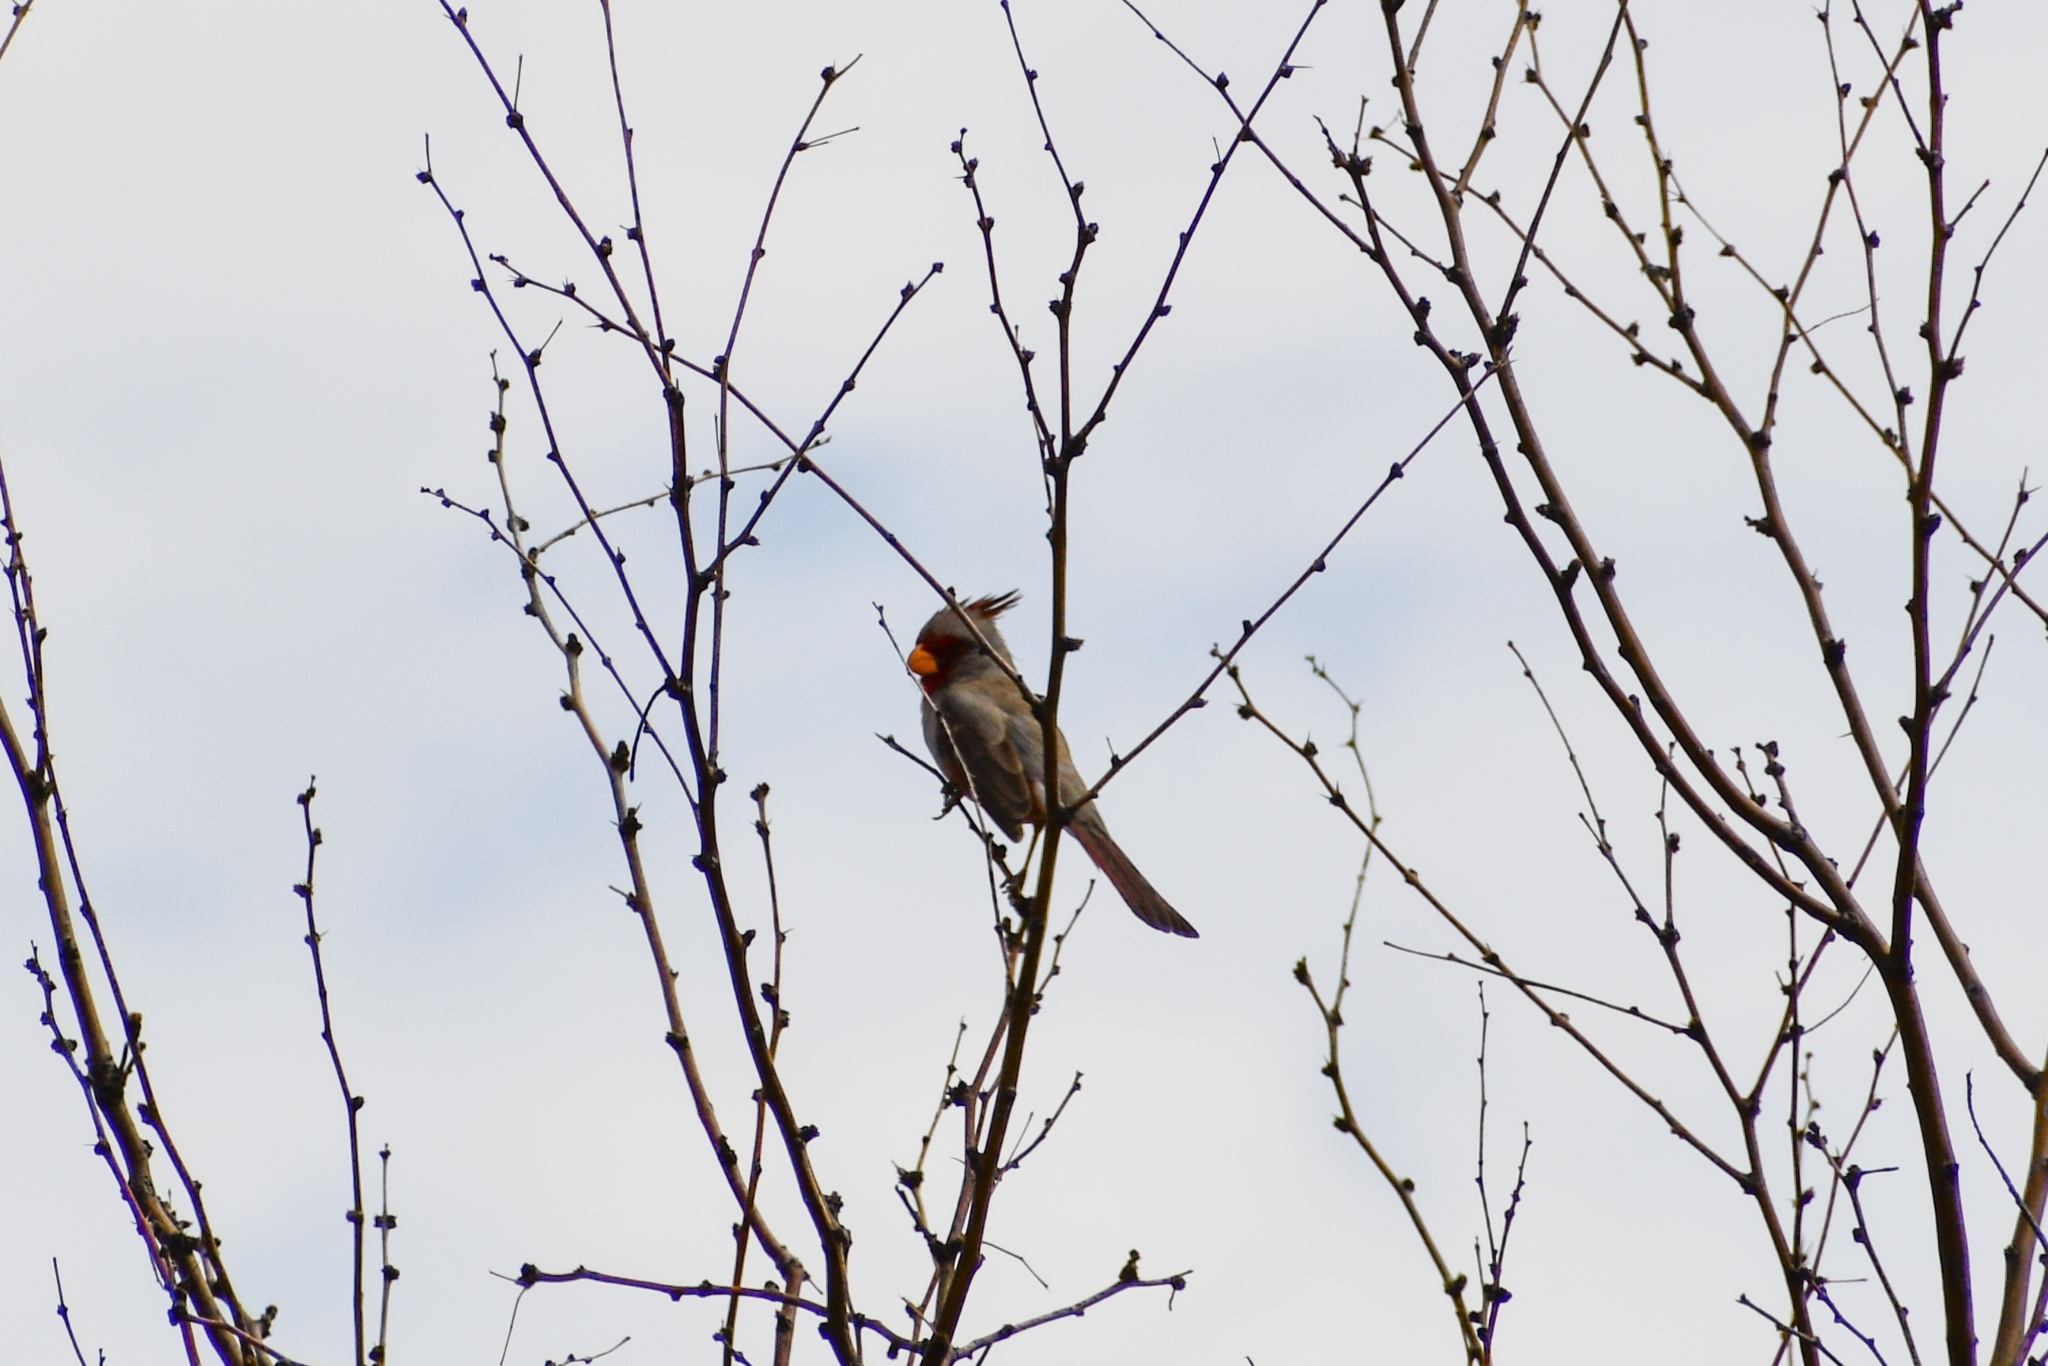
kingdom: Animalia
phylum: Chordata
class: Aves
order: Passeriformes
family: Cardinalidae
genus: Cardinalis
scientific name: Cardinalis sinuatus
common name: Pyrrhuloxia
